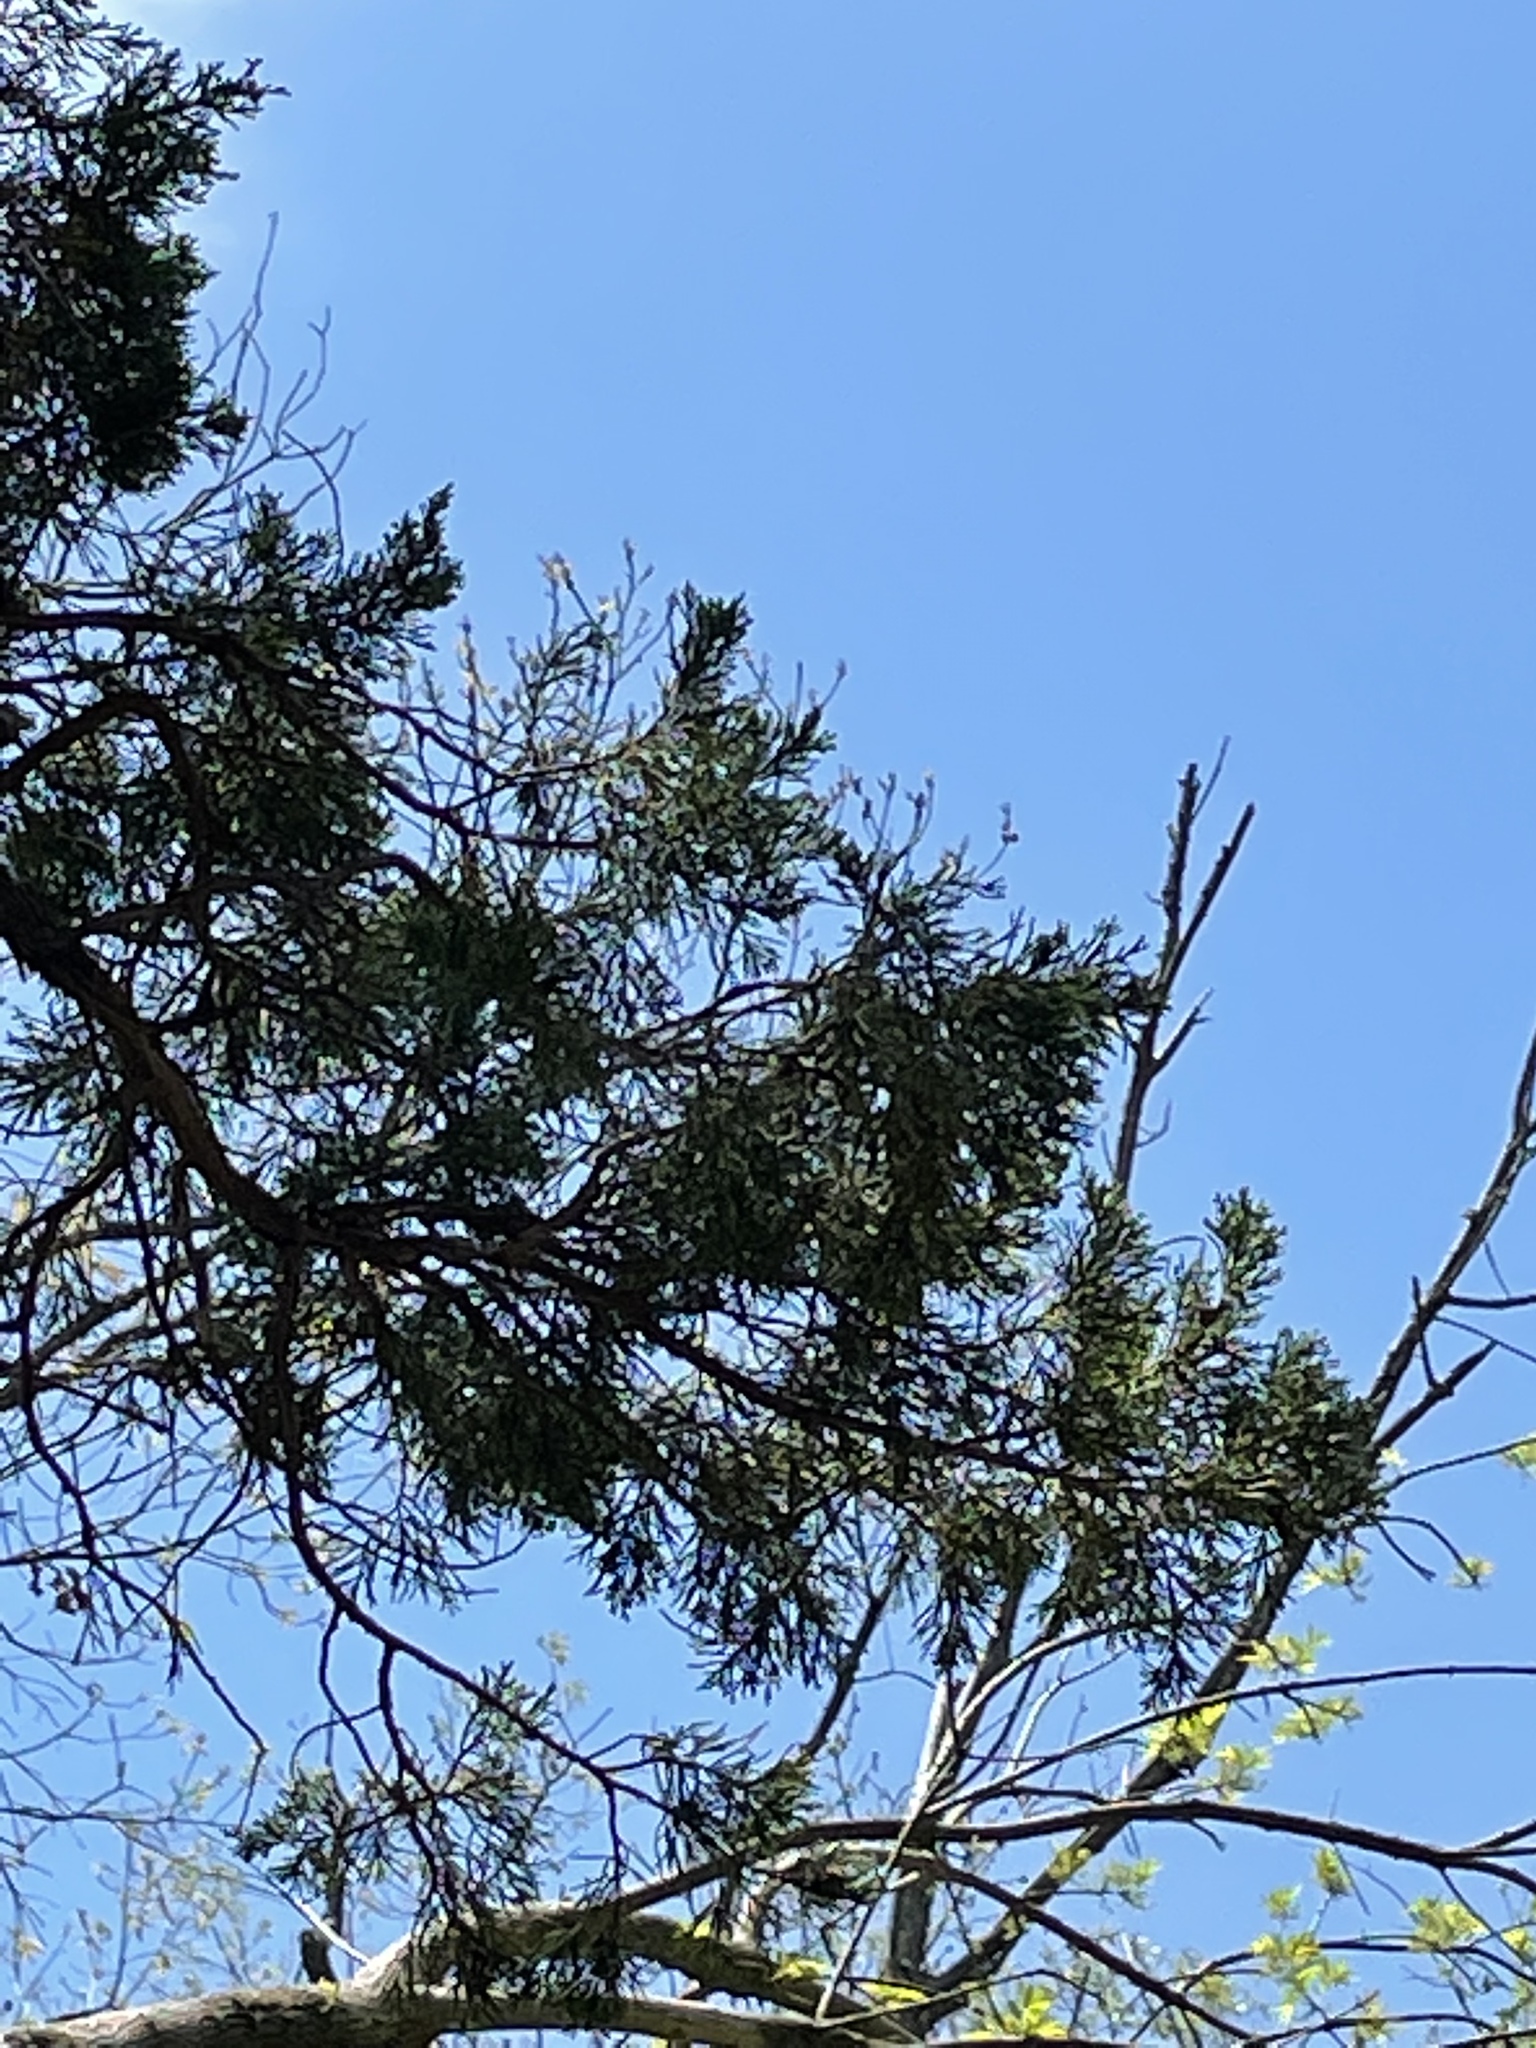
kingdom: Plantae
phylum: Tracheophyta
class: Pinopsida
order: Pinales
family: Cupressaceae
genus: Juniperus
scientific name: Juniperus virginiana
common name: Red juniper
